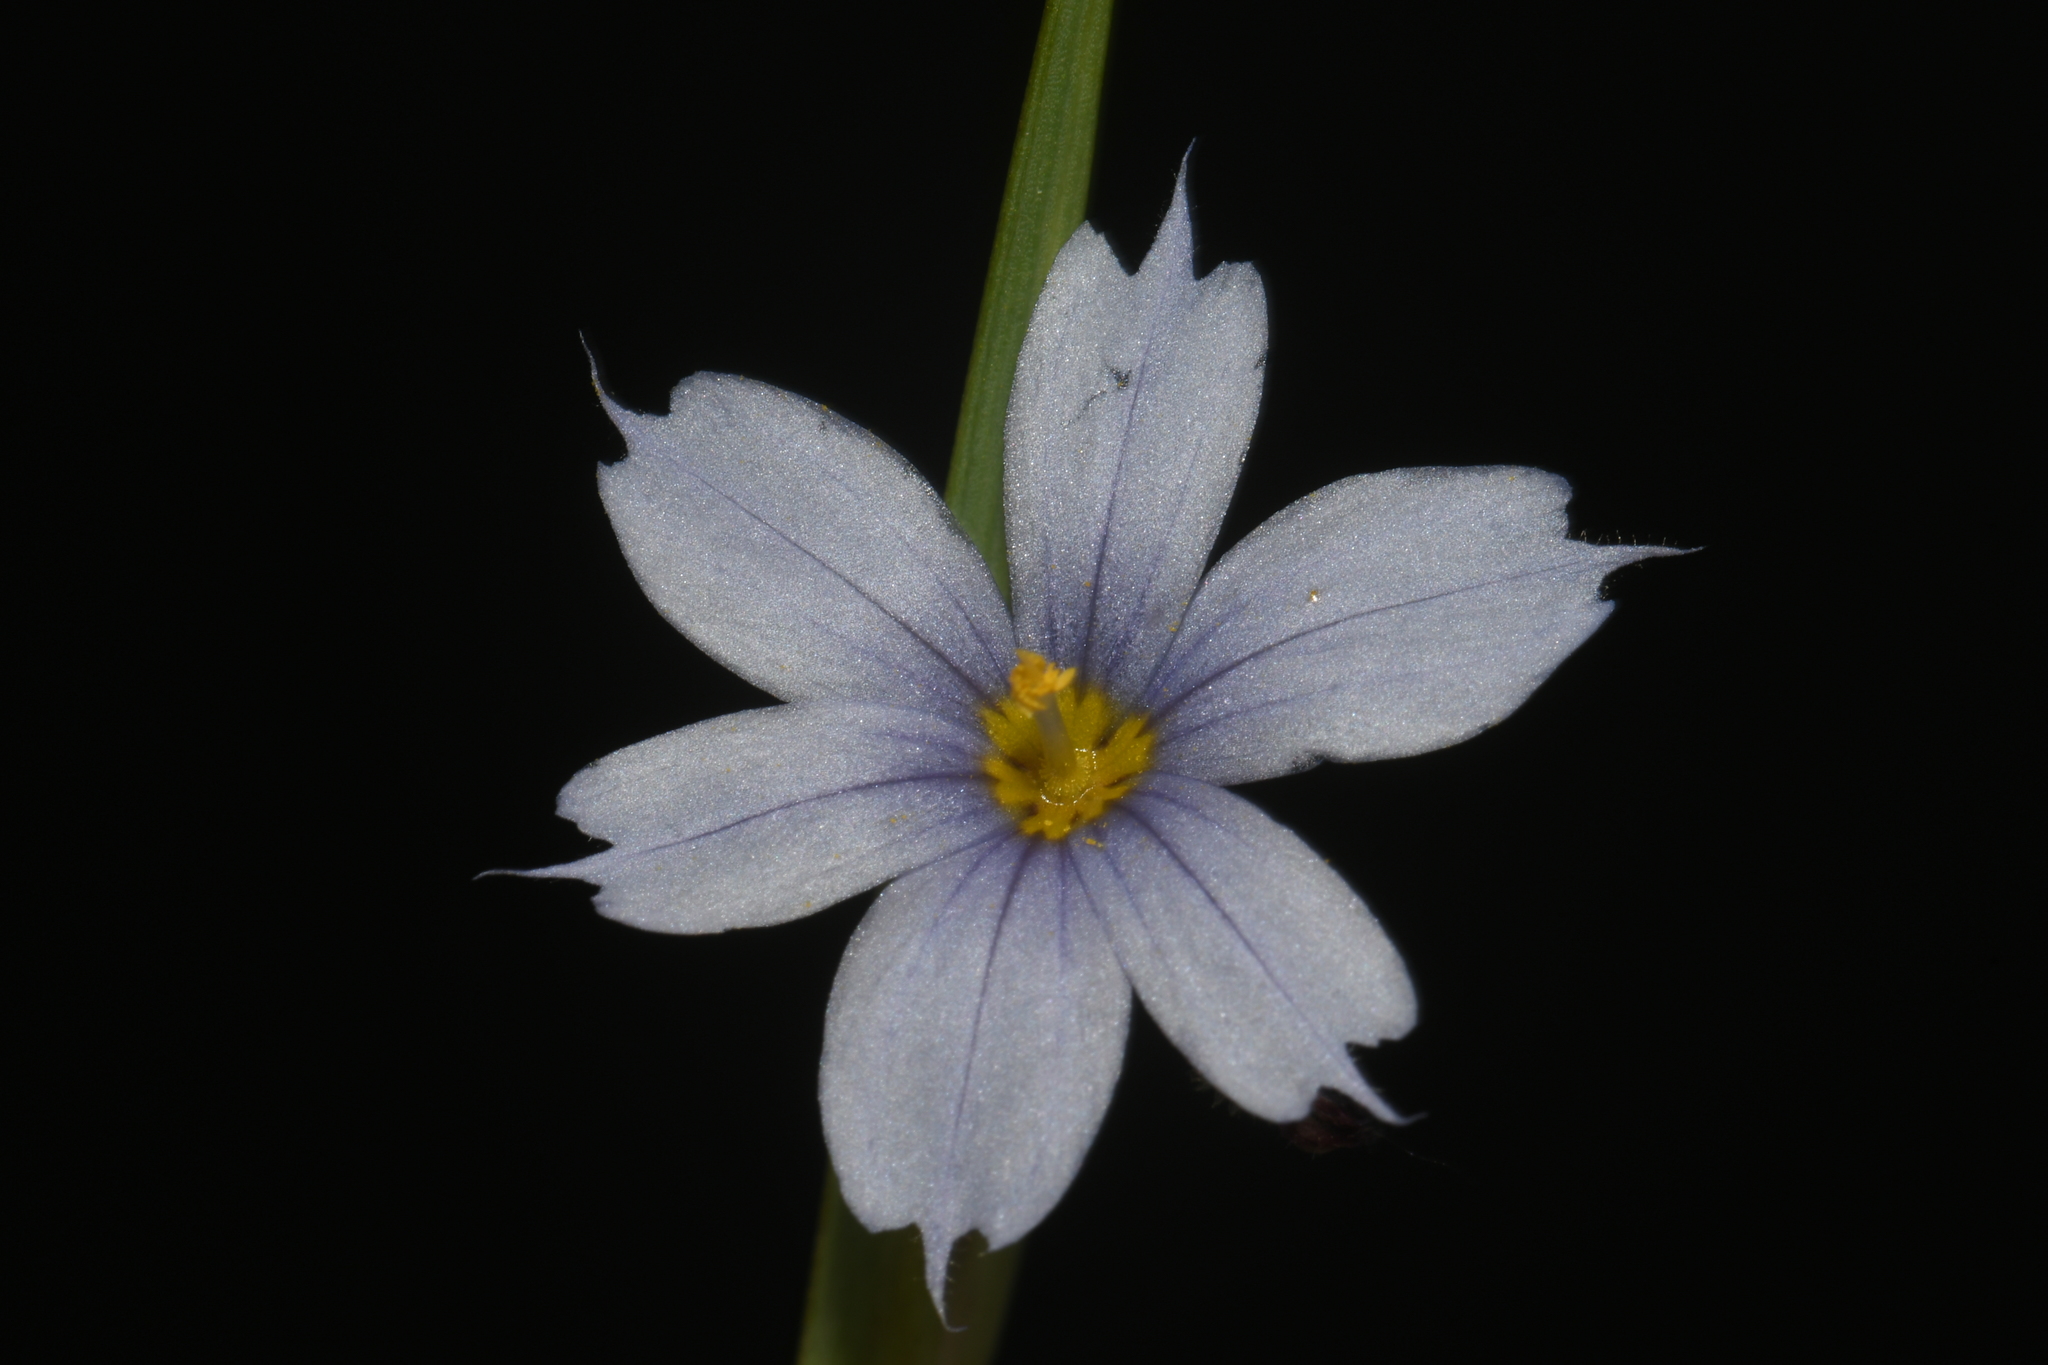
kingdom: Plantae
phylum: Tracheophyta
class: Liliopsida
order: Asparagales
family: Iridaceae
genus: Sisyrinchium
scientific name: Sisyrinchium albidum
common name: Pale blue-eyed-grass
